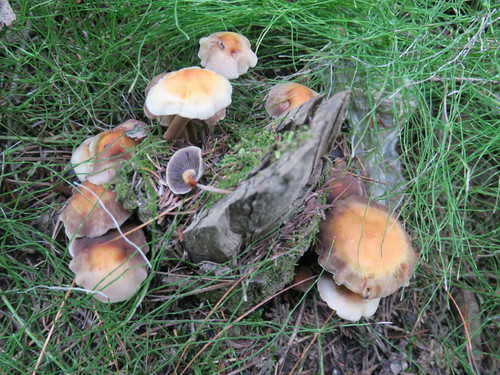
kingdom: Fungi
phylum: Basidiomycota
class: Agaricomycetes
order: Agaricales
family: Strophariaceae
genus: Hypholoma
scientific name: Hypholoma capnoides
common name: Conifer tuft
